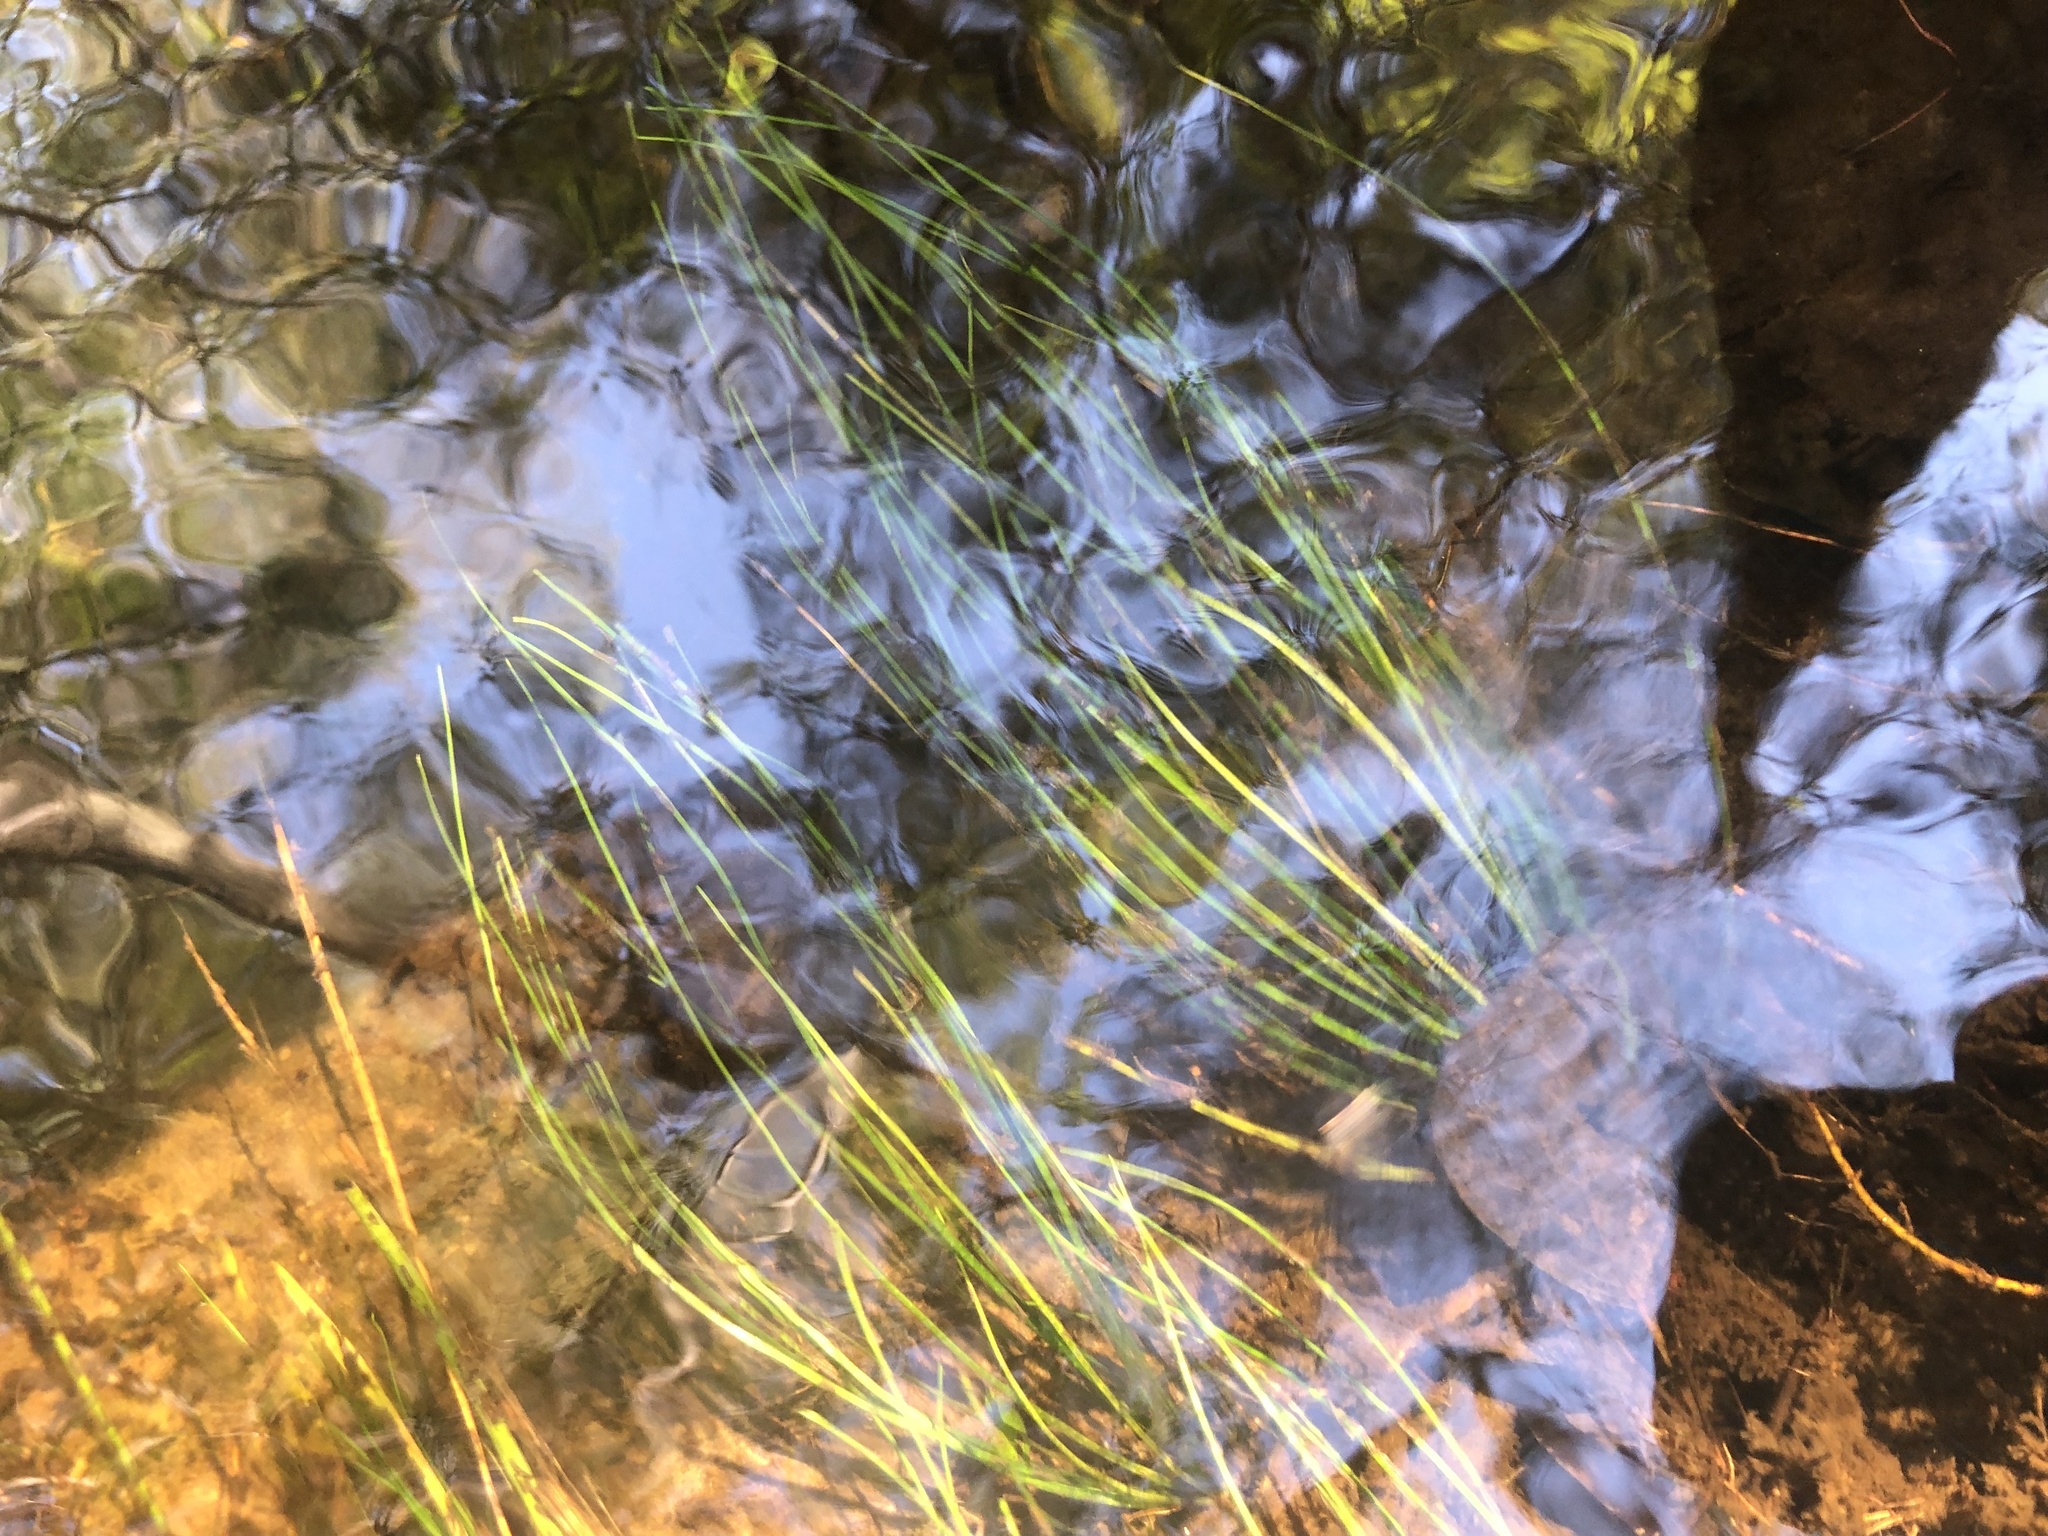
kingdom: Plantae
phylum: Tracheophyta
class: Lycopodiopsida
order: Isoetales
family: Isoetaceae
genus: Isoetes
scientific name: Isoetes hyemalis
